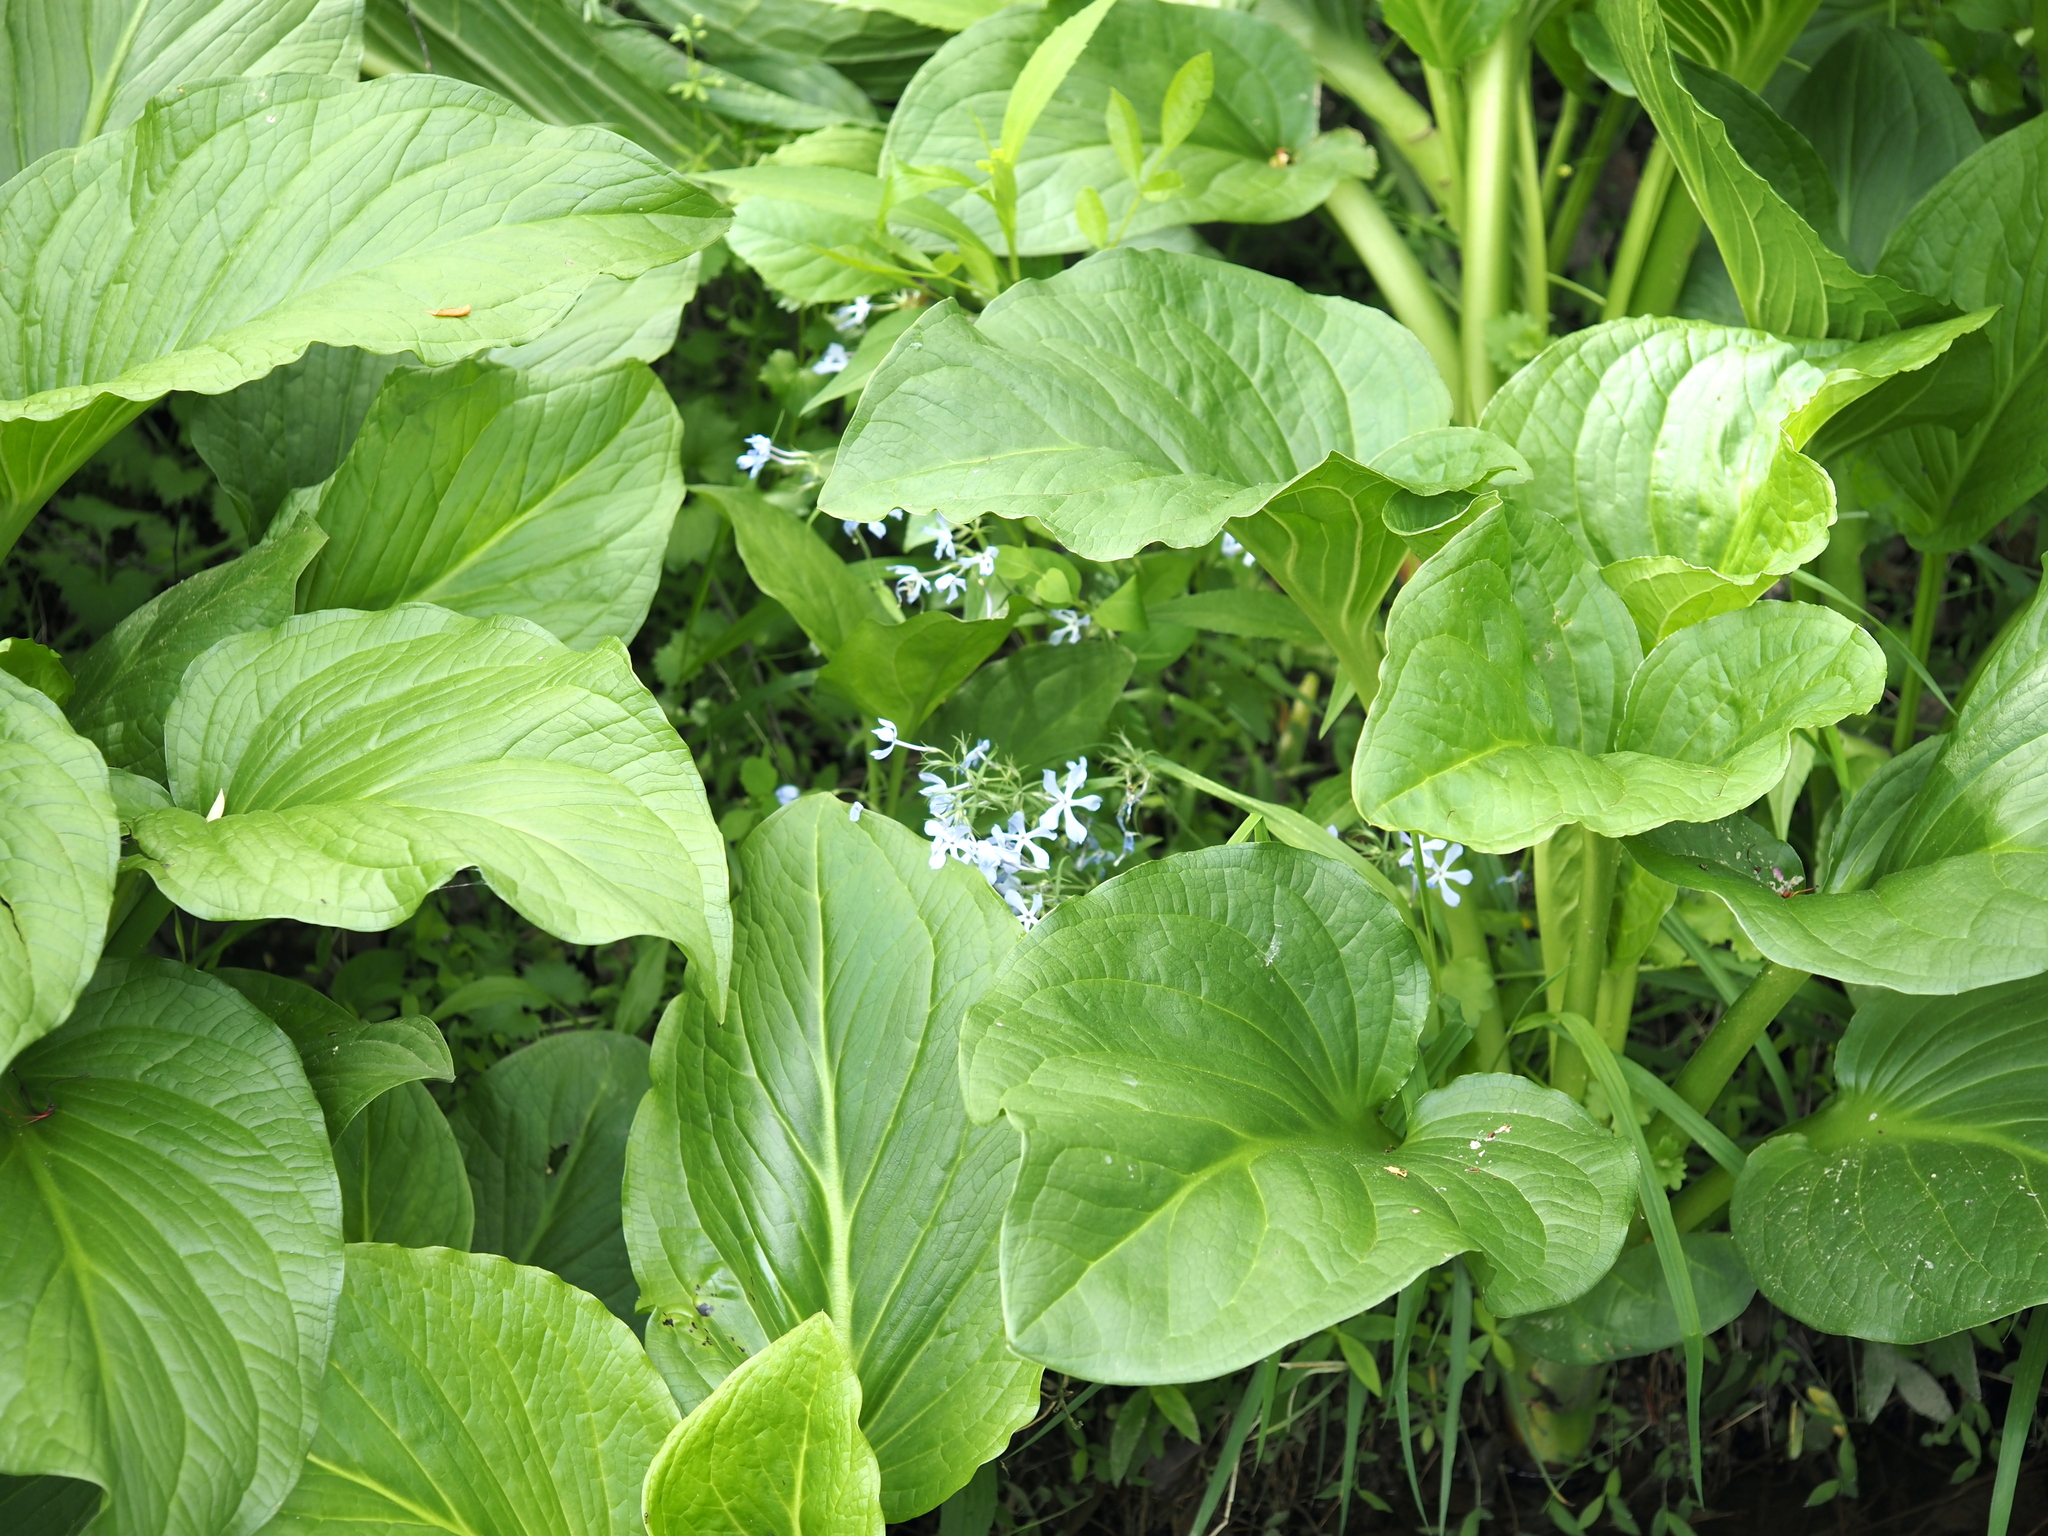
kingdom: Plantae
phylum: Tracheophyta
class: Magnoliopsida
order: Ericales
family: Polemoniaceae
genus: Phlox
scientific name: Phlox divaricata
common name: Blue phlox
